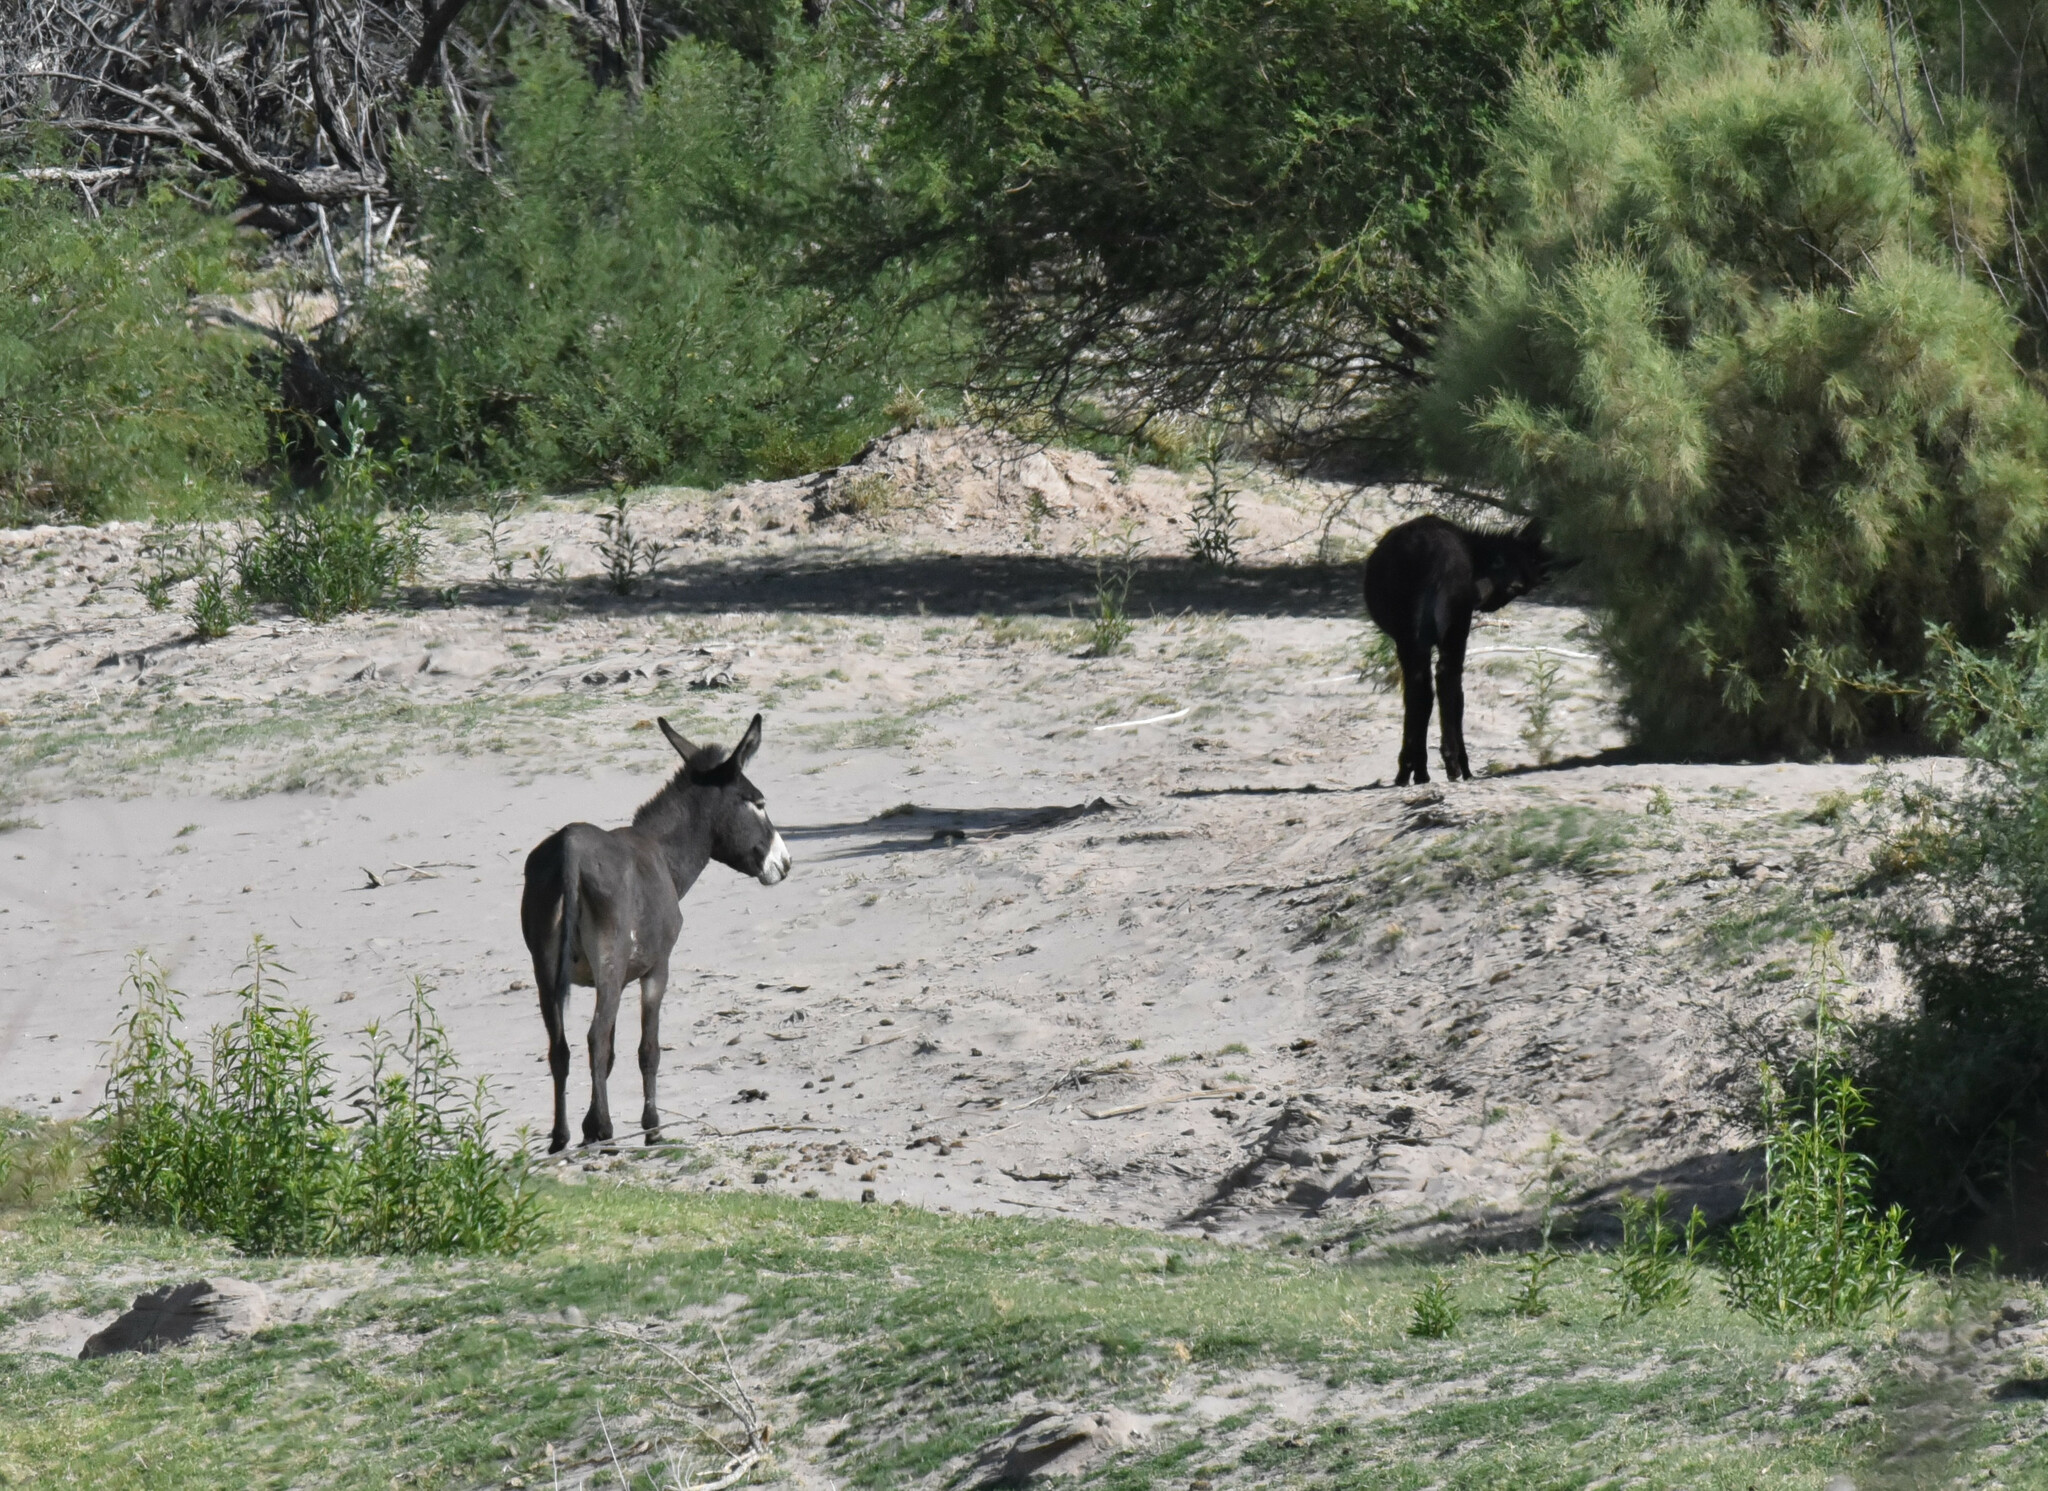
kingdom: Animalia
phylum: Chordata
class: Mammalia
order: Perissodactyla
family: Equidae
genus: Equus
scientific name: Equus asinus
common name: Ass
